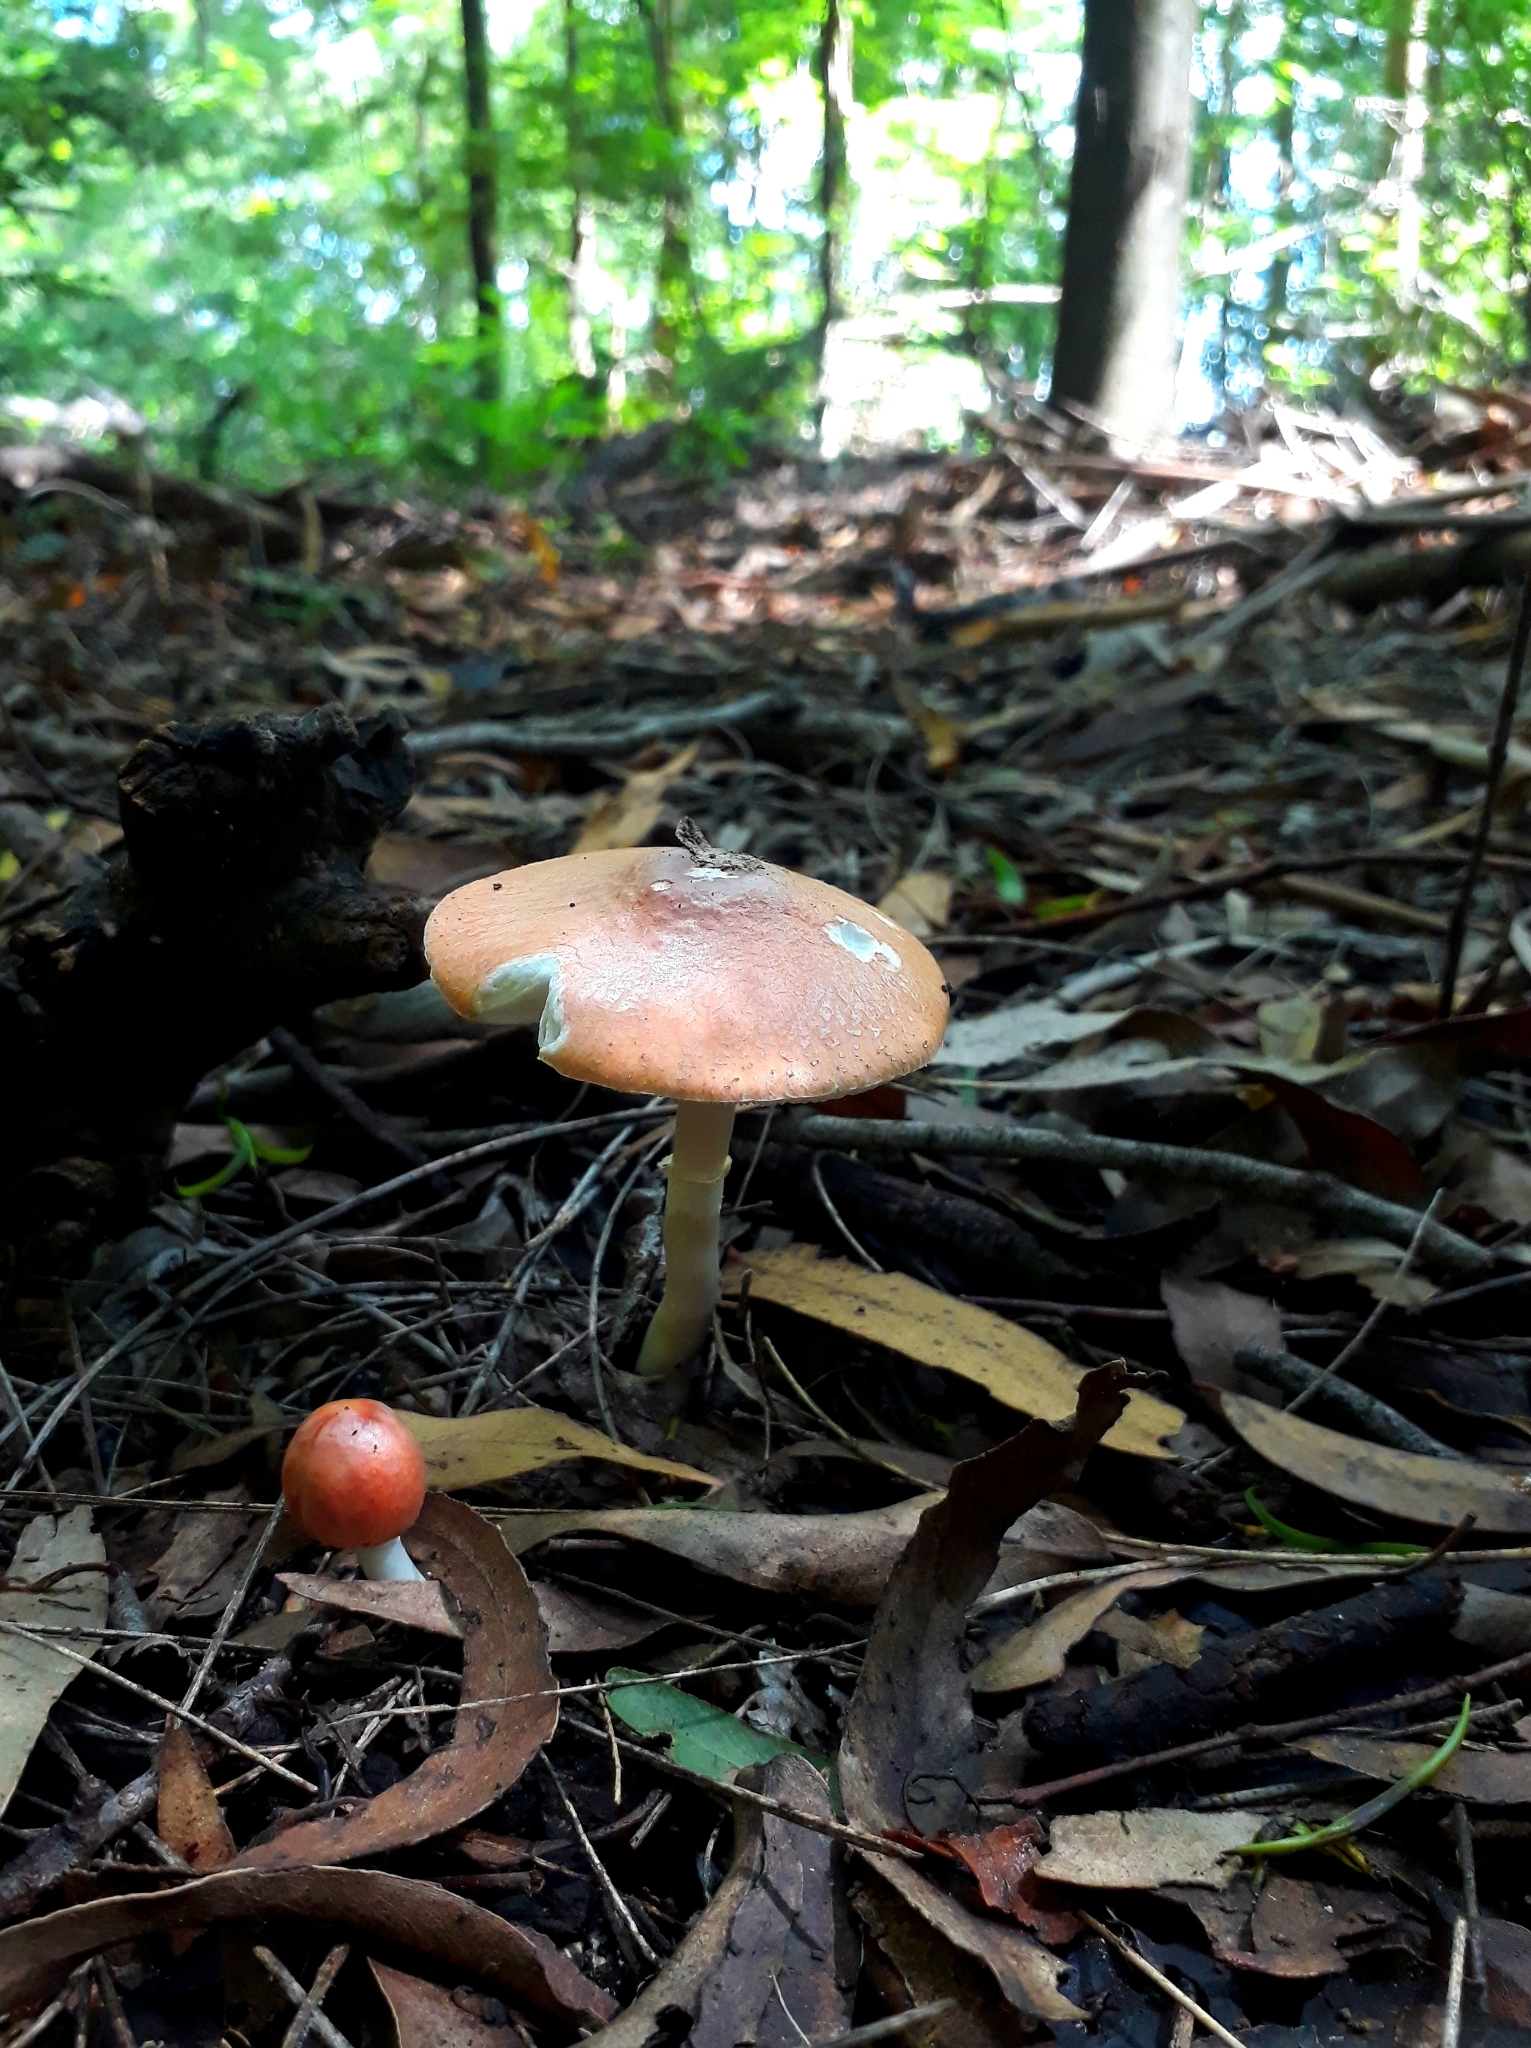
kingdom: Fungi
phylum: Basidiomycota
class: Agaricomycetes
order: Agaricales
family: Agaricaceae
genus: Leucoagaricus
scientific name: Leucoagaricus rubrotinctus
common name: Ruby dapperling
